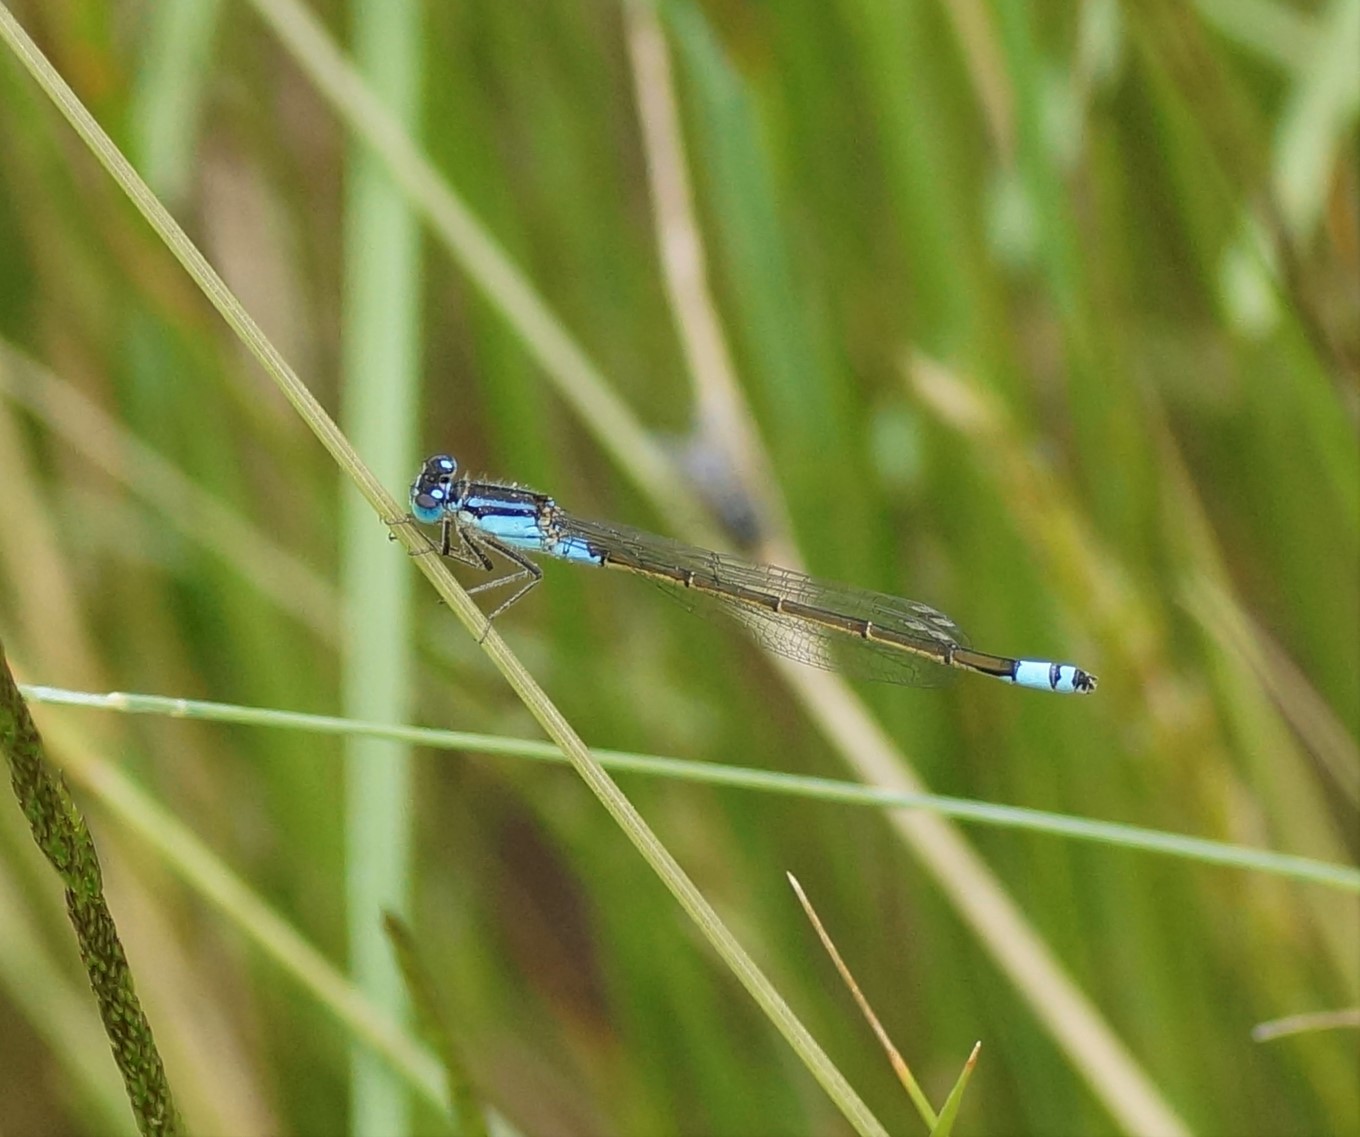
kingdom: Animalia
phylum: Arthropoda
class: Insecta
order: Odonata
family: Coenagrionidae
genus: Ischnura
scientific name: Ischnura heterosticta
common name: Common bluetail
